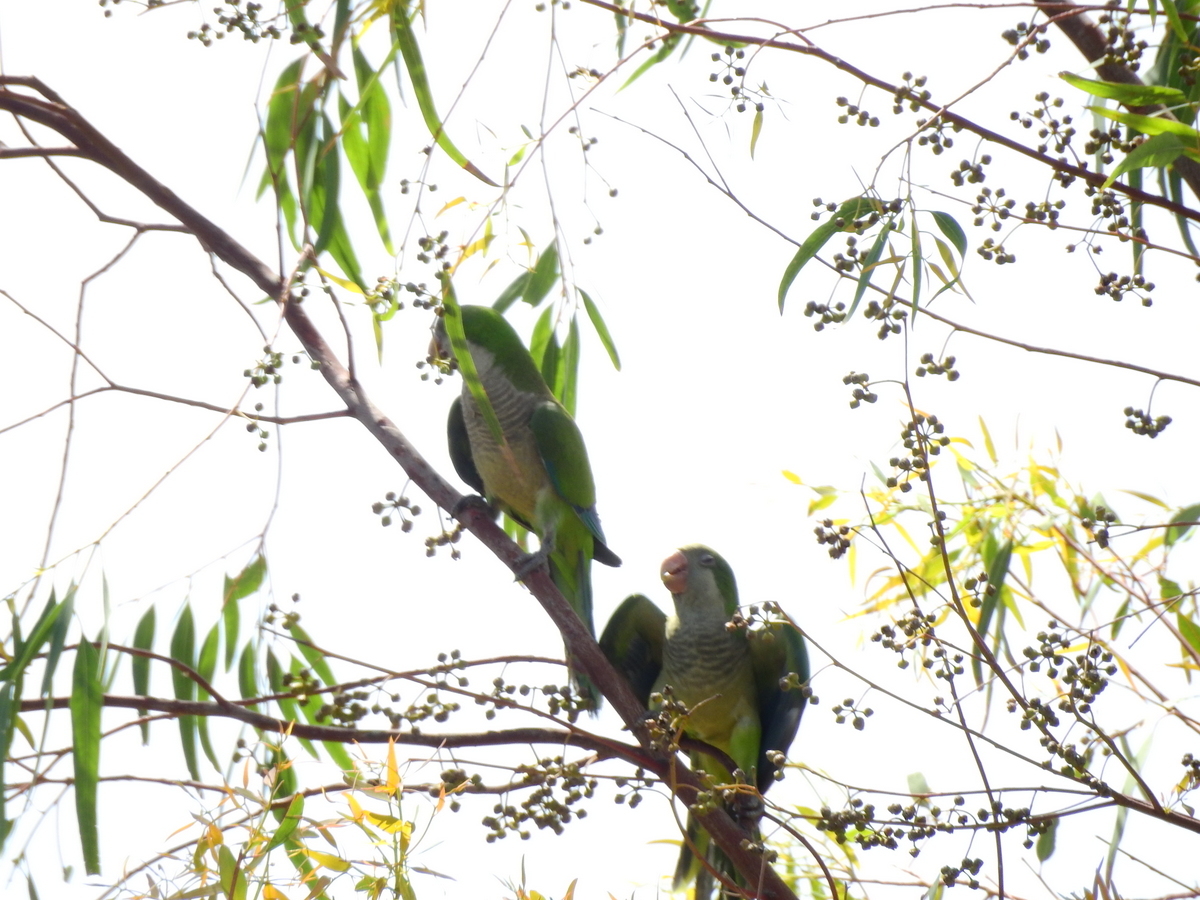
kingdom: Animalia
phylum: Chordata
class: Aves
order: Psittaciformes
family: Psittacidae
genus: Myiopsitta
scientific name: Myiopsitta monachus
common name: Monk parakeet
